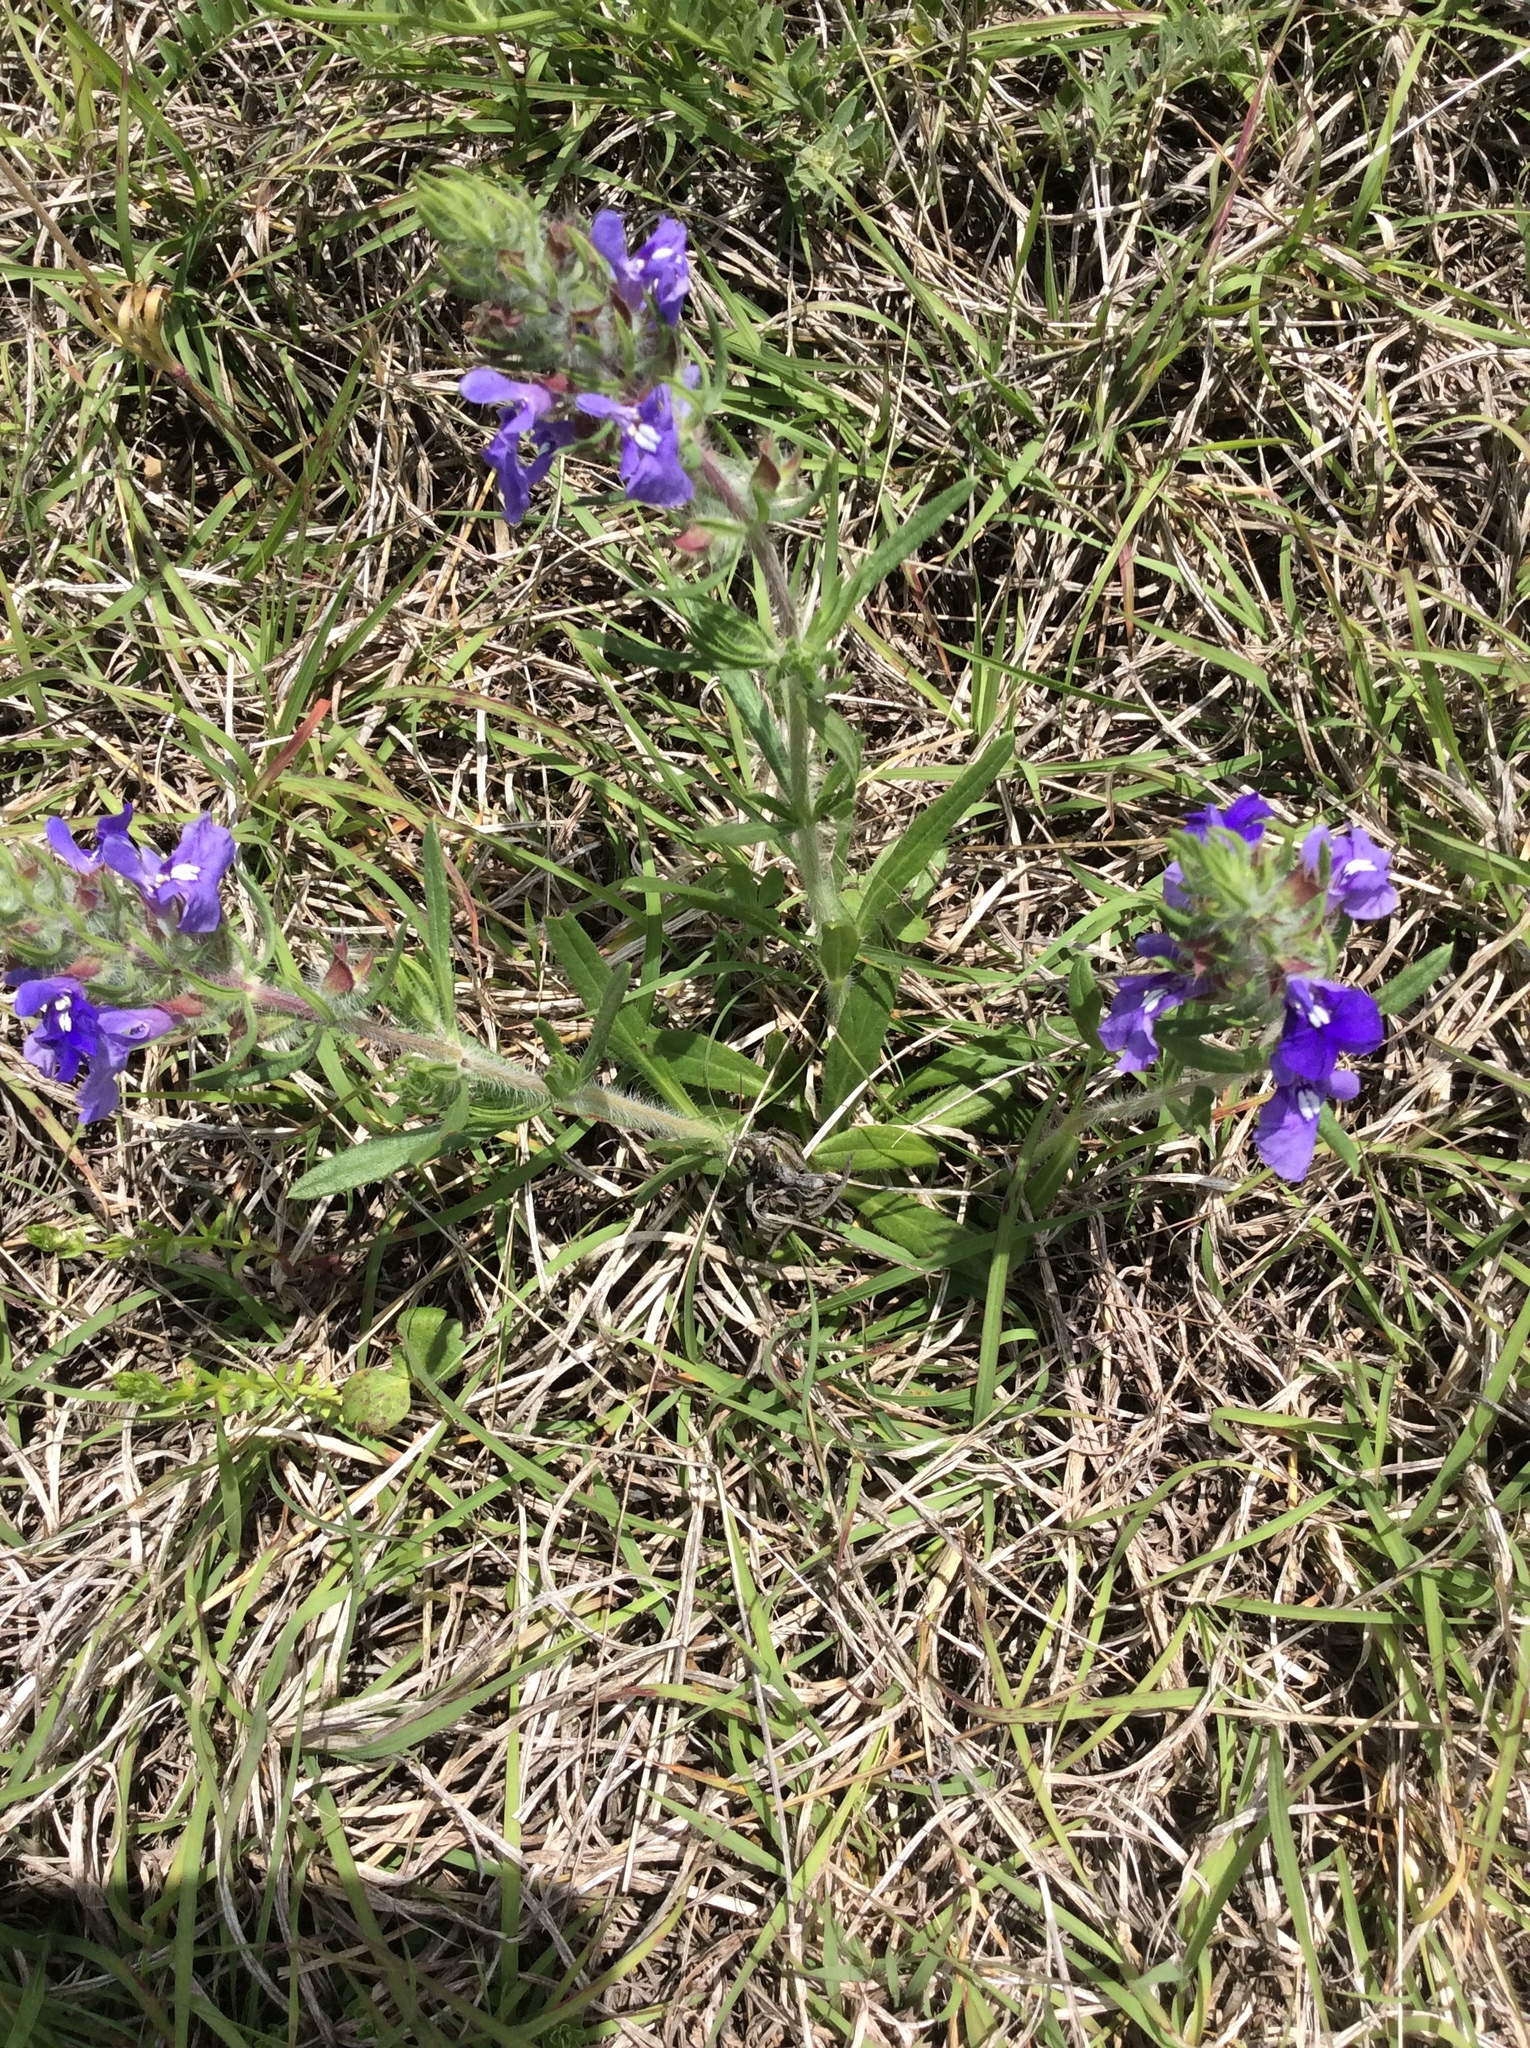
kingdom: Plantae
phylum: Tracheophyta
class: Magnoliopsida
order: Lamiales
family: Lamiaceae
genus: Salvia
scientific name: Salvia texana
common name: Texas sage
